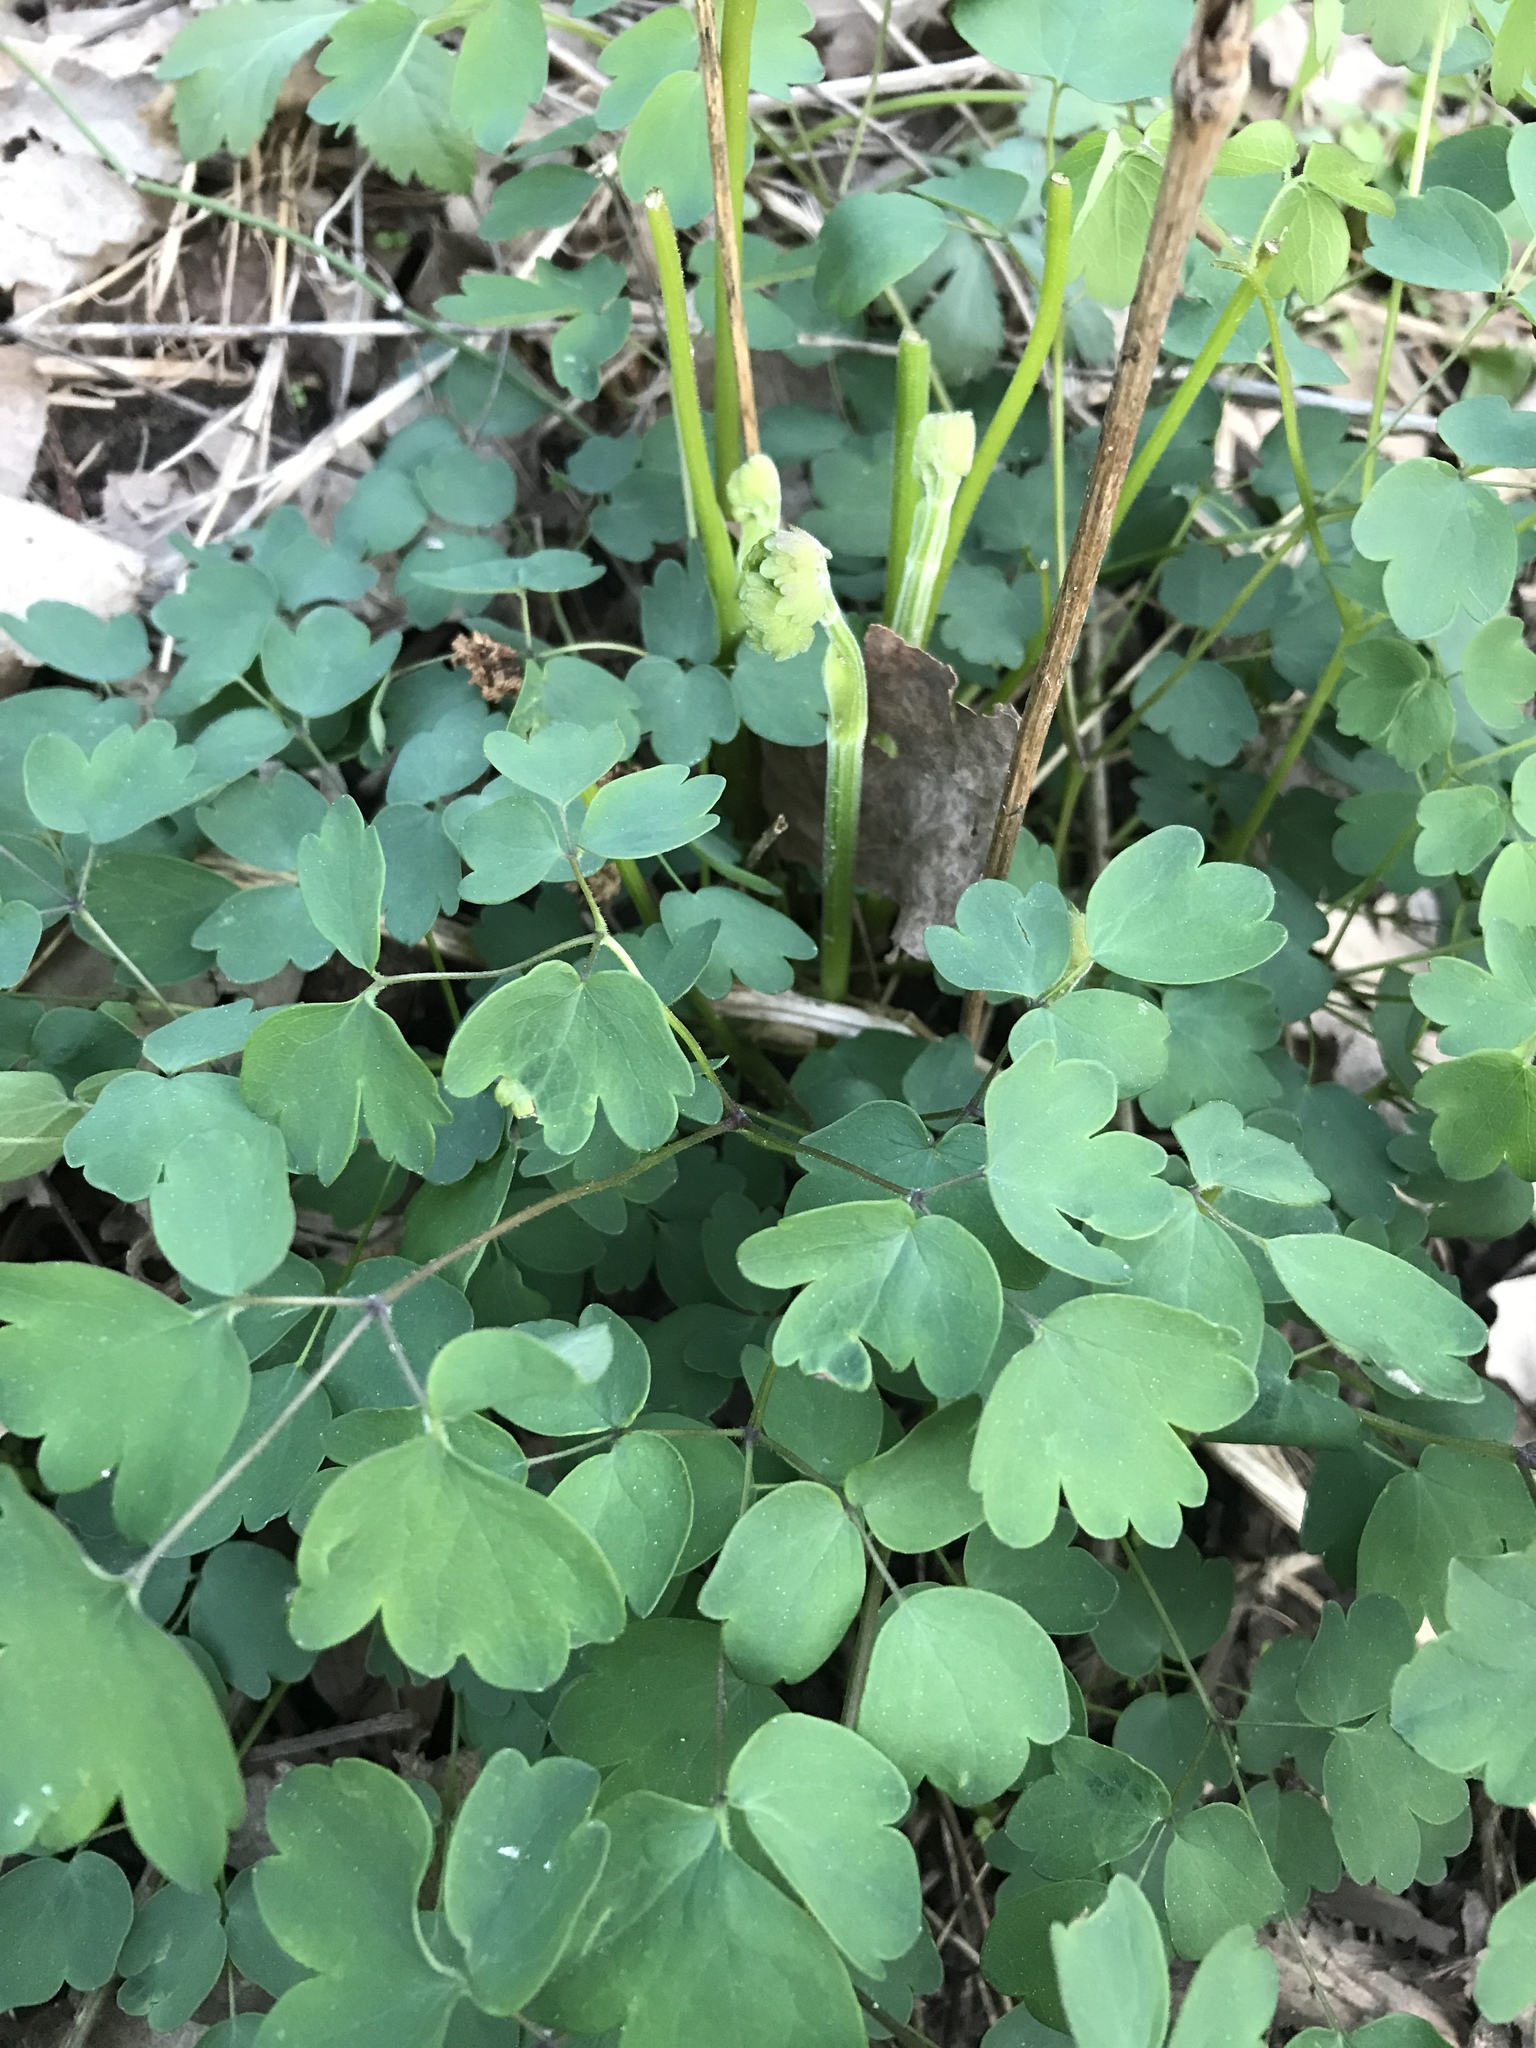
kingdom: Plantae
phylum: Tracheophyta
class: Magnoliopsida
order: Ranunculales
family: Ranunculaceae
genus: Thalictrum
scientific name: Thalictrum dioicum
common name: Early meadow-rue
